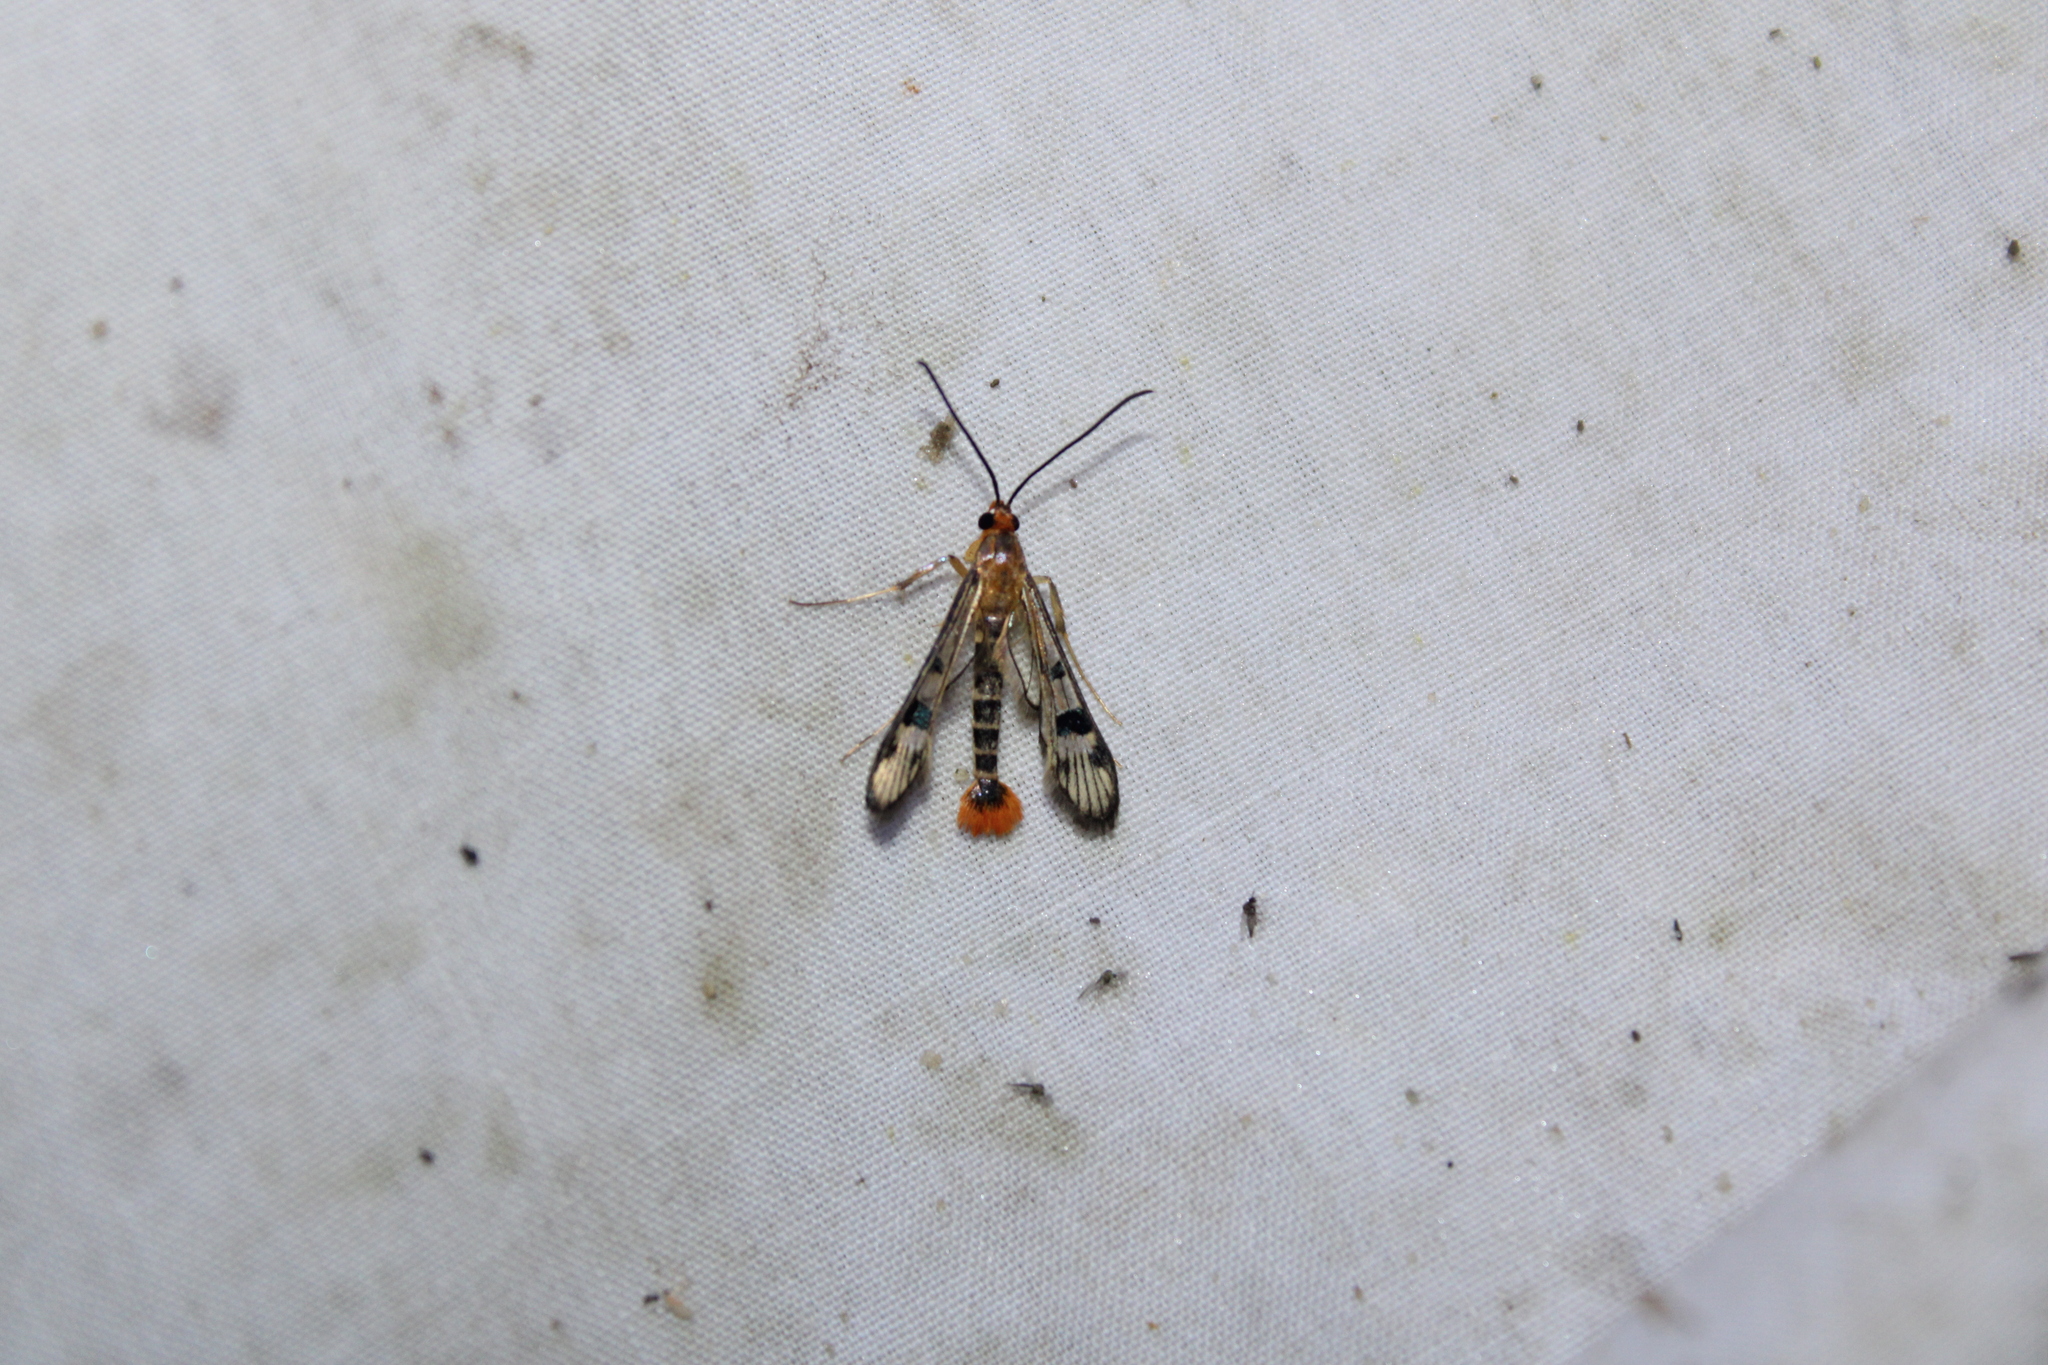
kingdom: Animalia
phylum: Arthropoda
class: Insecta
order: Lepidoptera
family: Sesiidae
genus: Synanthedon
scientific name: Synanthedon acerni
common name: Maple callus borer moth
